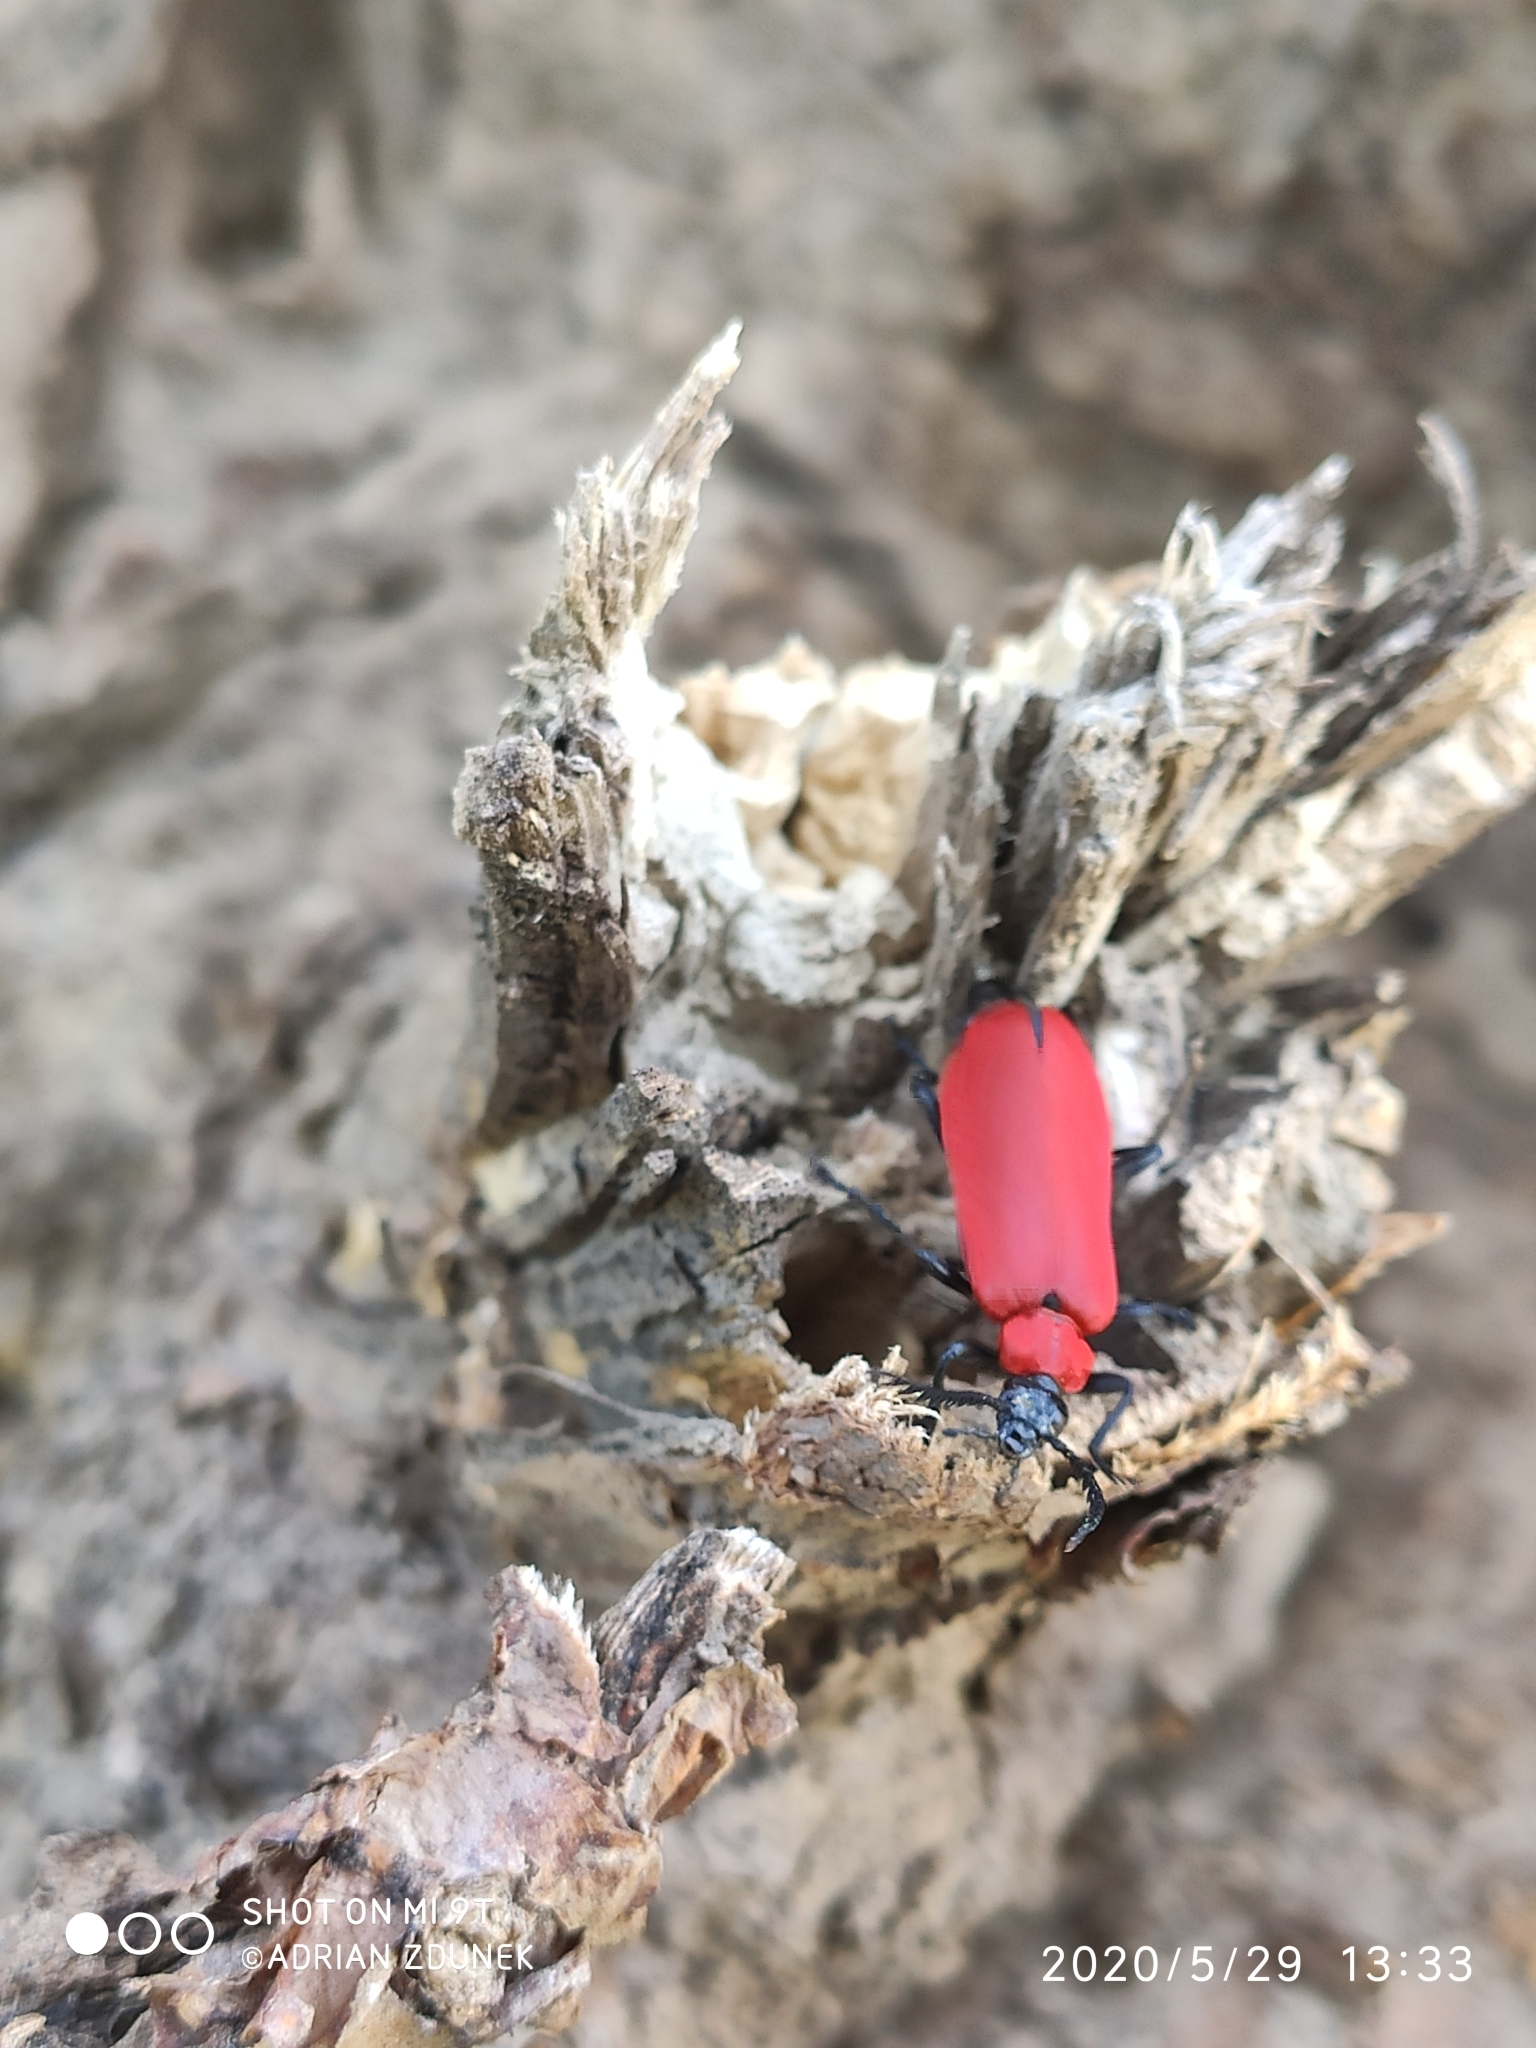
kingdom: Animalia
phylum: Arthropoda
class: Insecta
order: Coleoptera
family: Pyrochroidae
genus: Pyrochroa
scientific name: Pyrochroa coccinea
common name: Black-headed cardinal beetle
